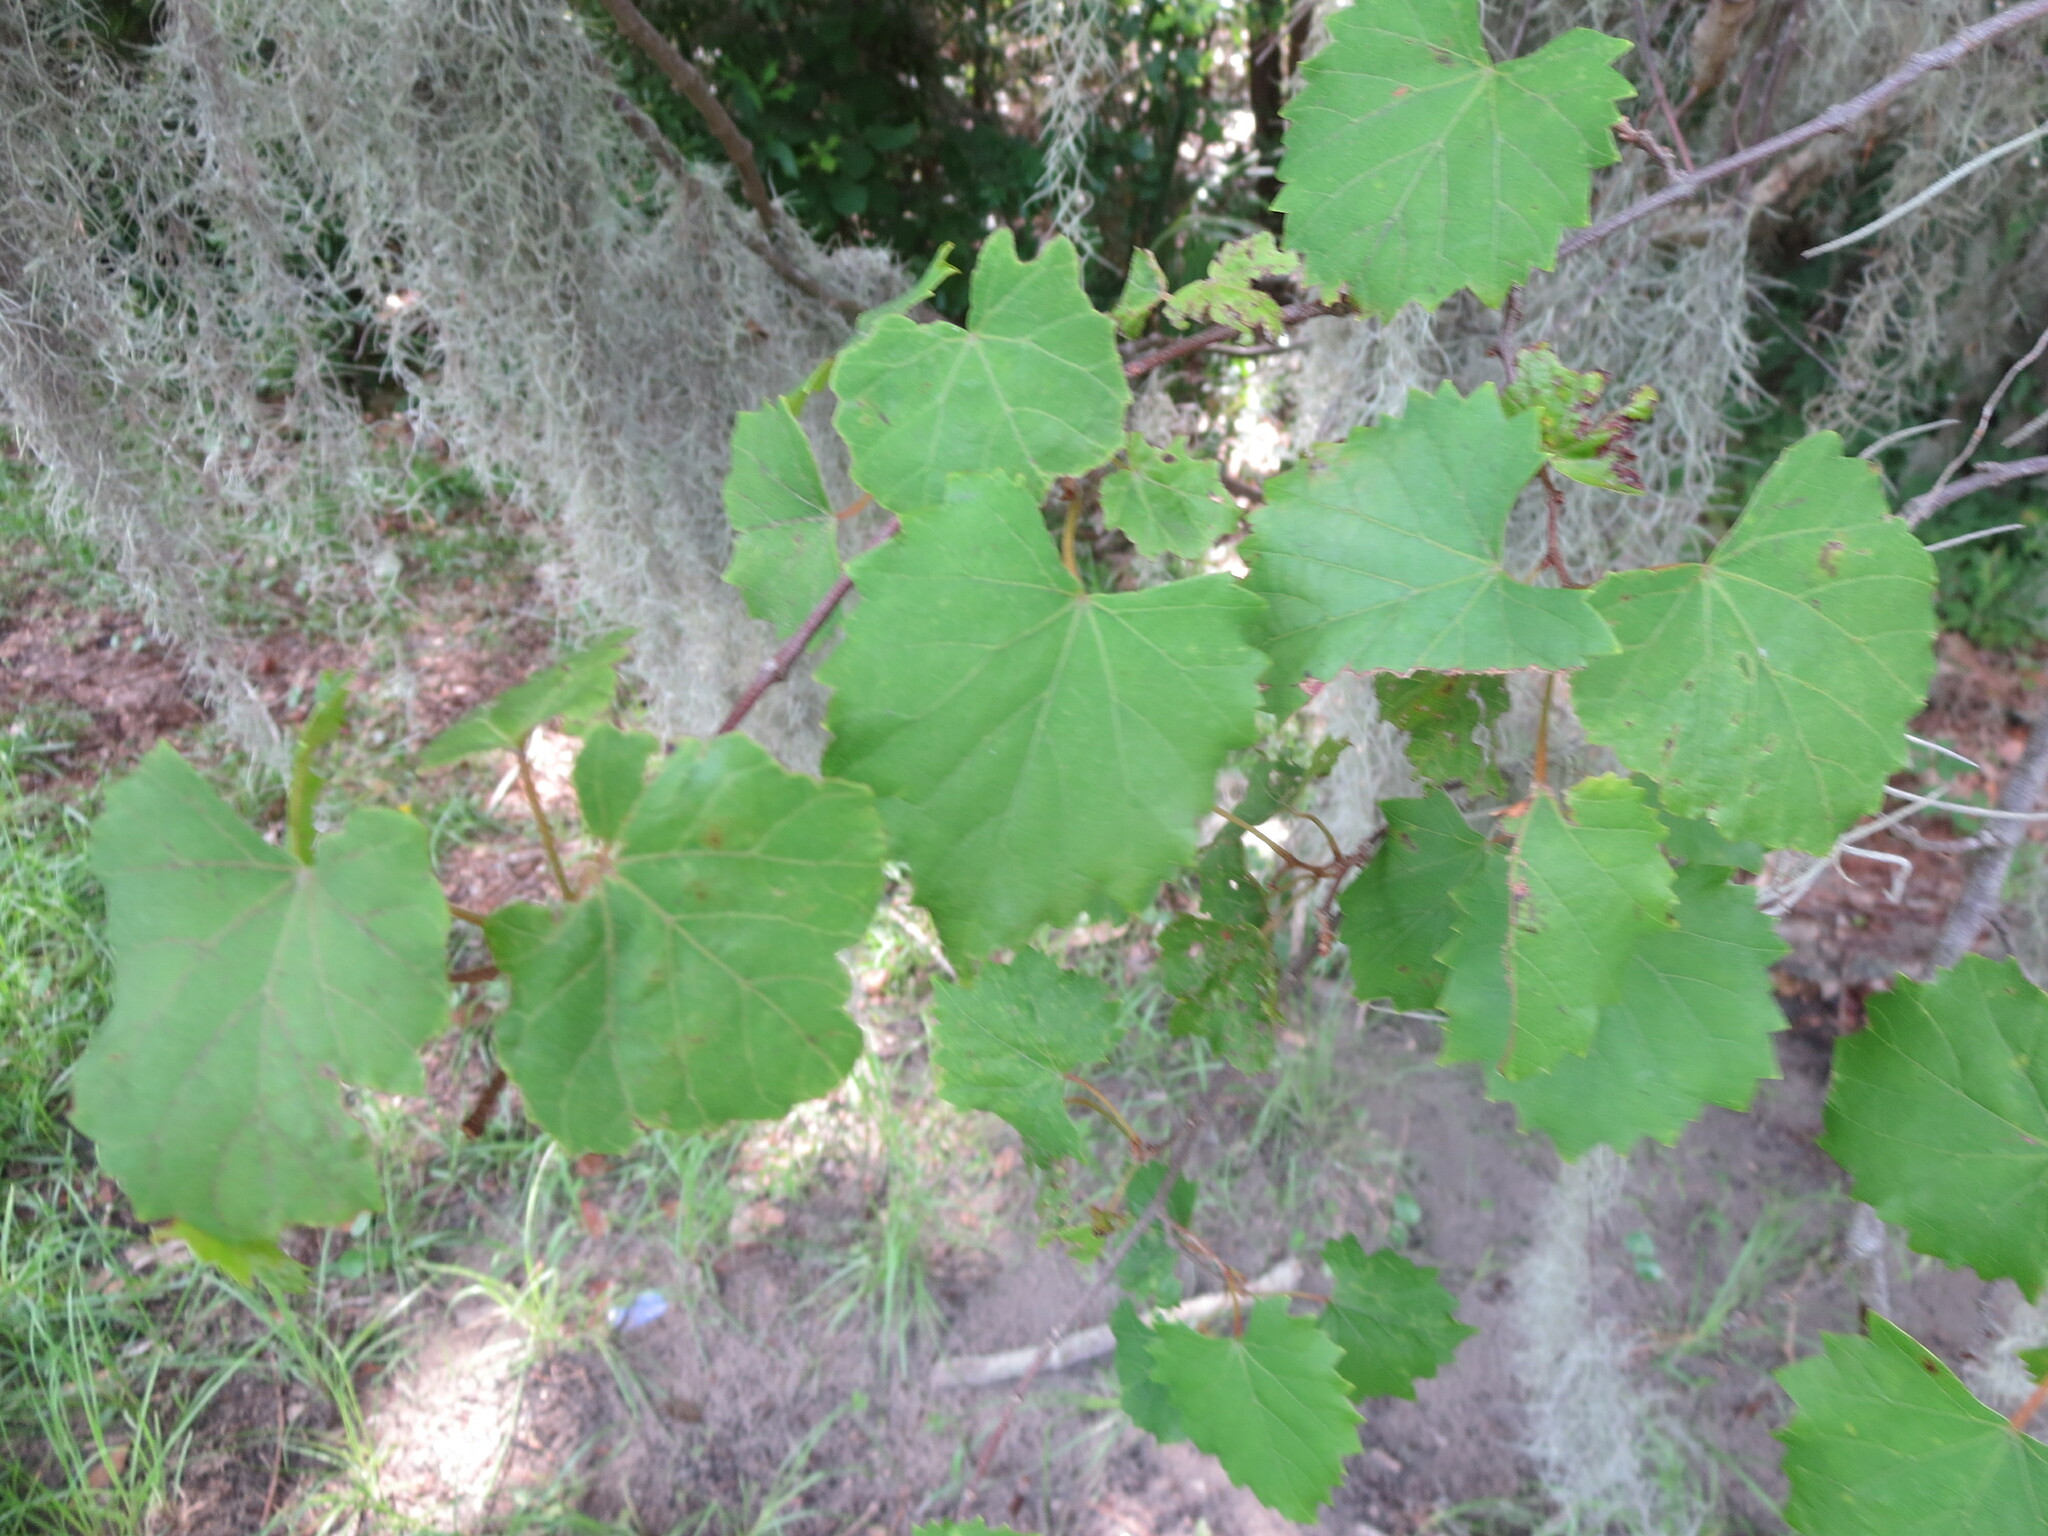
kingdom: Plantae
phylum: Tracheophyta
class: Magnoliopsida
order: Vitales
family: Vitaceae
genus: Vitis
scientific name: Vitis rotundifolia
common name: Muscadine grape
